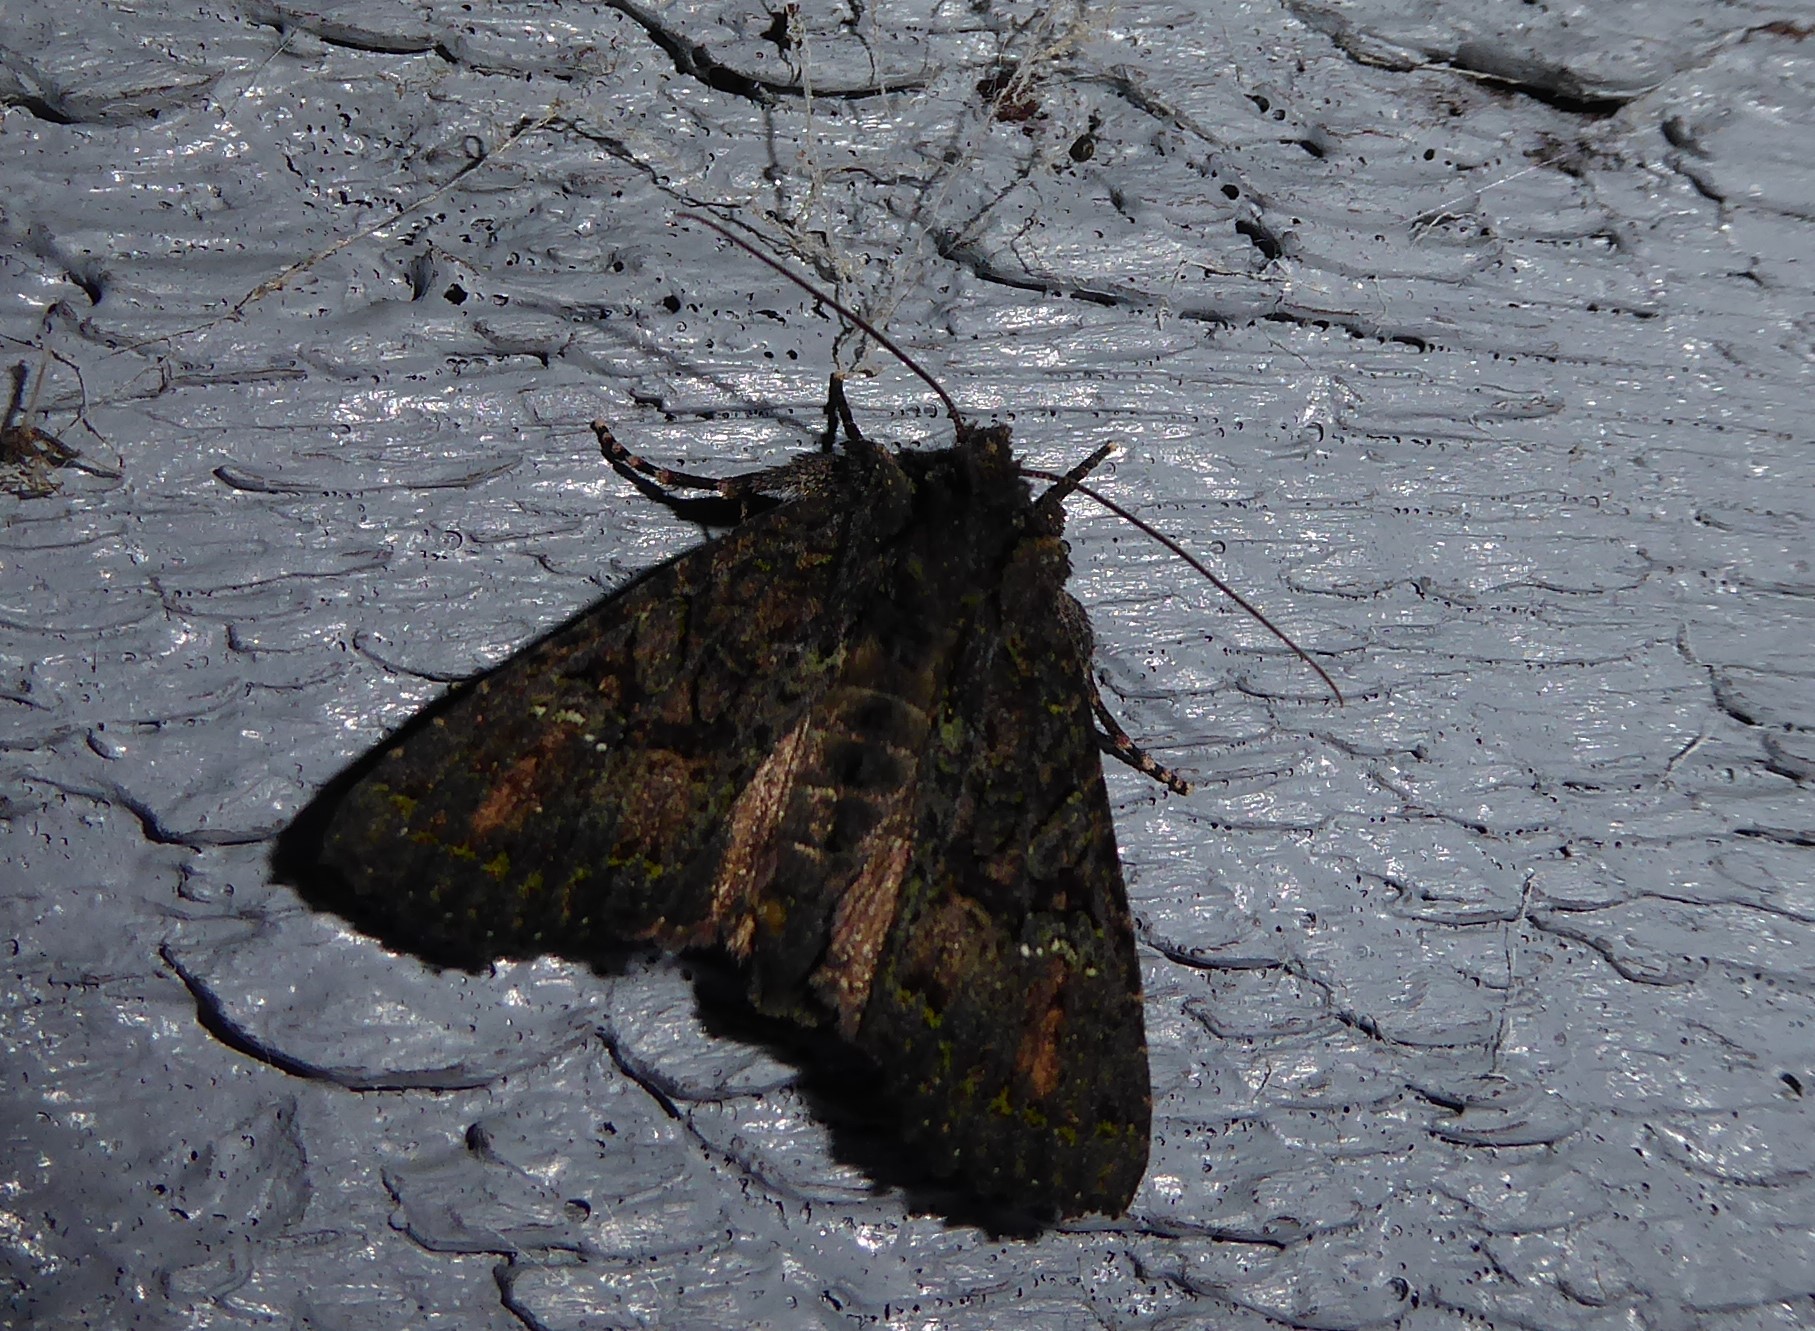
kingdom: Animalia
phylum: Arthropoda
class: Insecta
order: Lepidoptera
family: Noctuidae
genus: Meterana
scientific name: Meterana ochthistis
